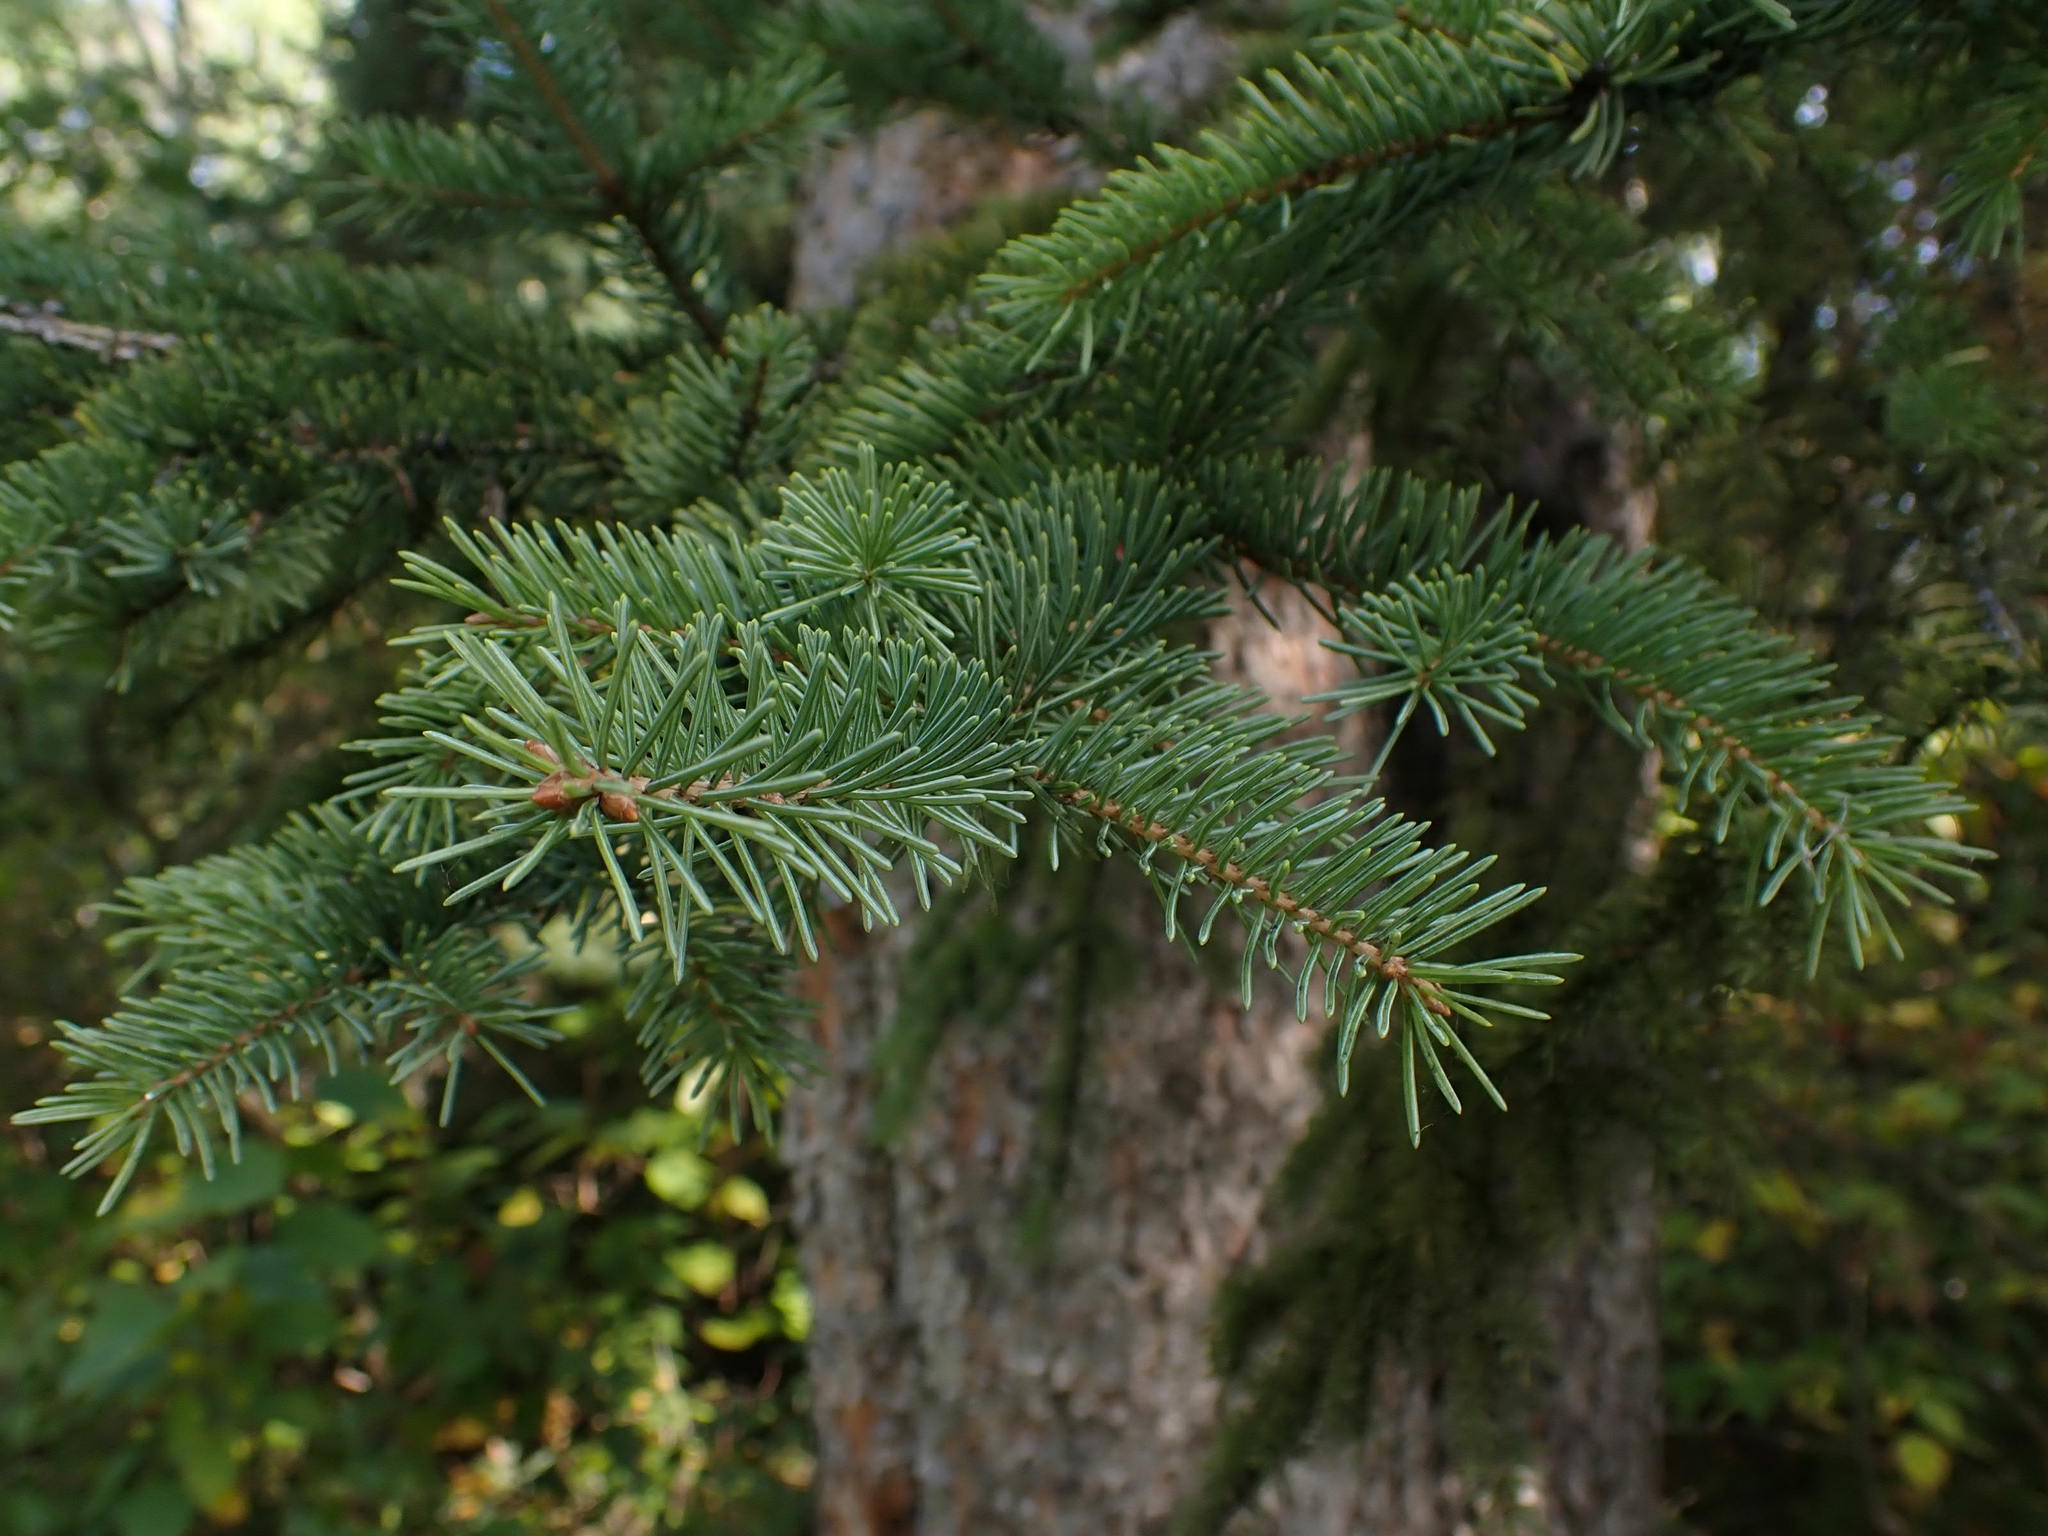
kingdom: Plantae
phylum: Tracheophyta
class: Pinopsida
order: Pinales
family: Pinaceae
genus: Picea
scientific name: Picea glauca
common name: White spruce
